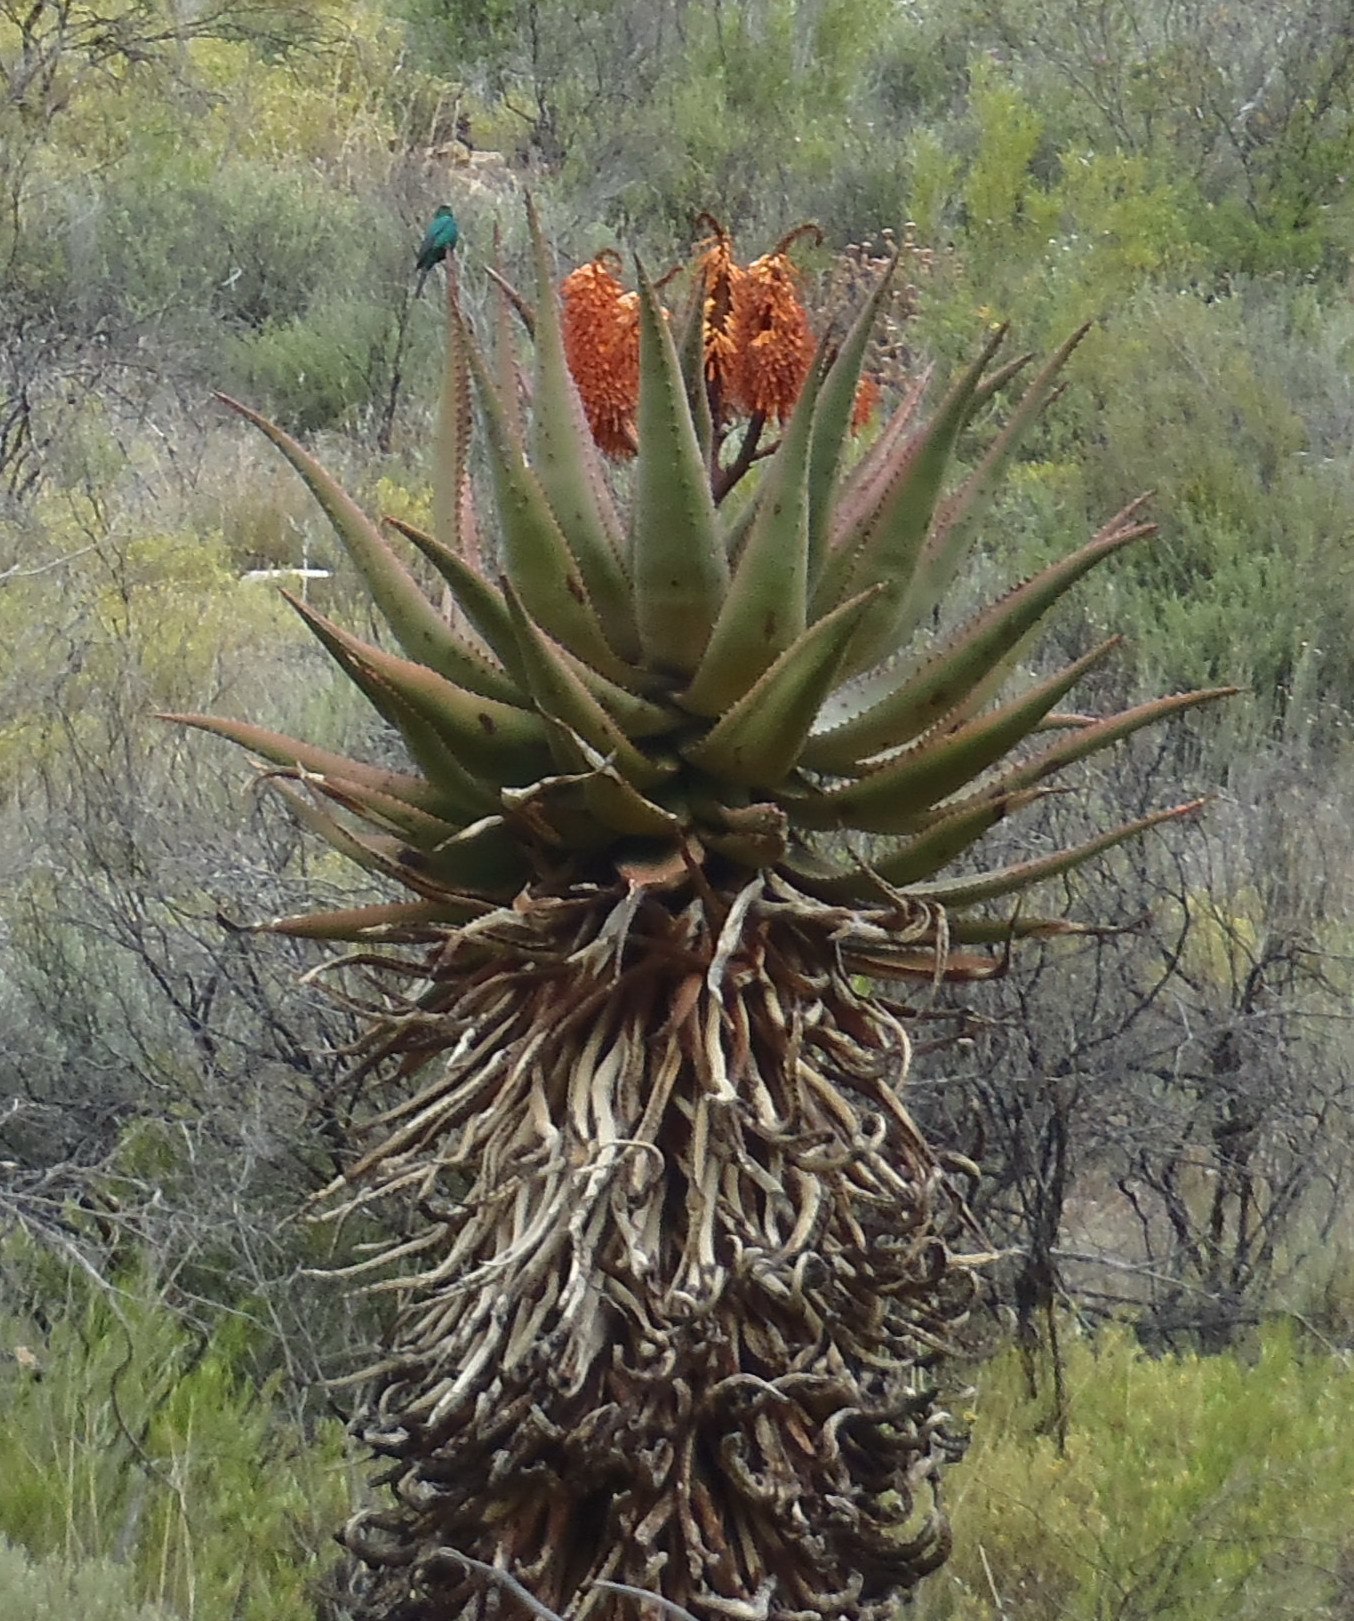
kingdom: Animalia
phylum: Chordata
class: Aves
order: Passeriformes
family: Nectariniidae
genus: Nectarinia
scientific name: Nectarinia famosa
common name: Malachite sunbird
